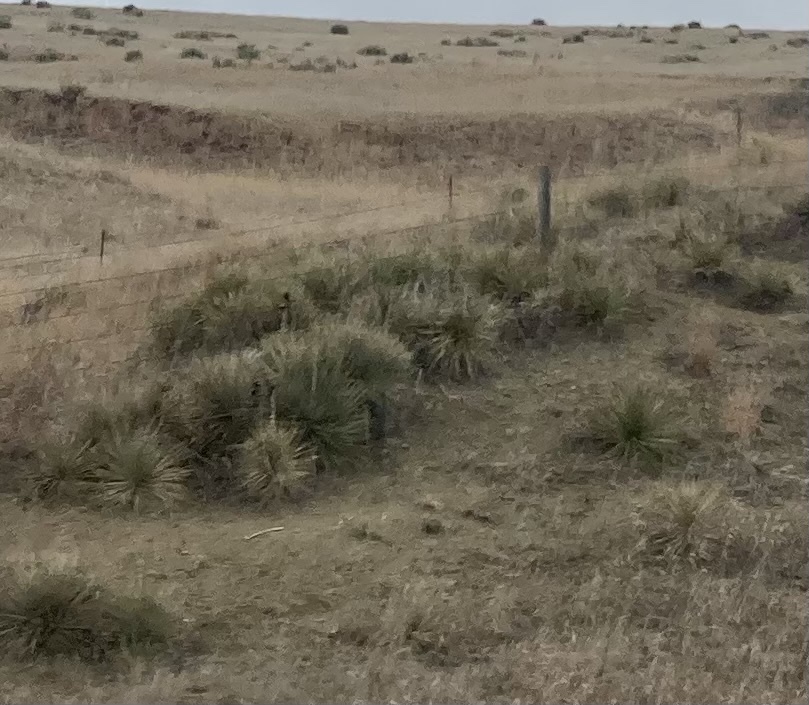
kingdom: Plantae
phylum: Tracheophyta
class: Liliopsida
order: Asparagales
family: Asparagaceae
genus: Yucca
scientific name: Yucca glauca
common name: Great plains yucca
